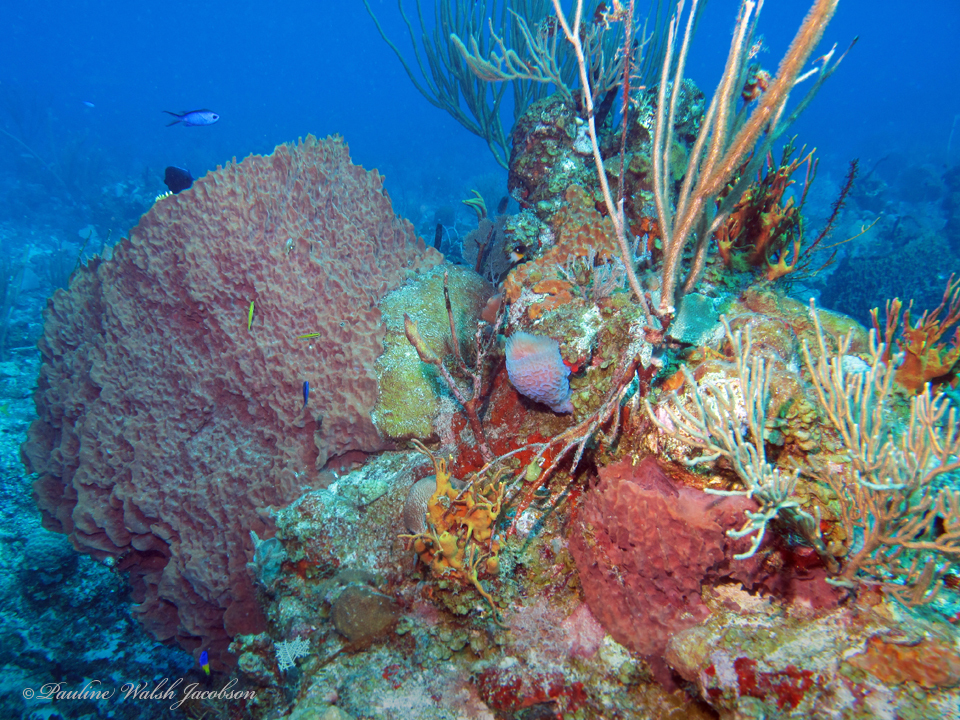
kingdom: Animalia
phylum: Porifera
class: Demospongiae
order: Haplosclerida
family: Petrosiidae
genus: Xestospongia
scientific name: Xestospongia muta
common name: Giant barrel sponge
